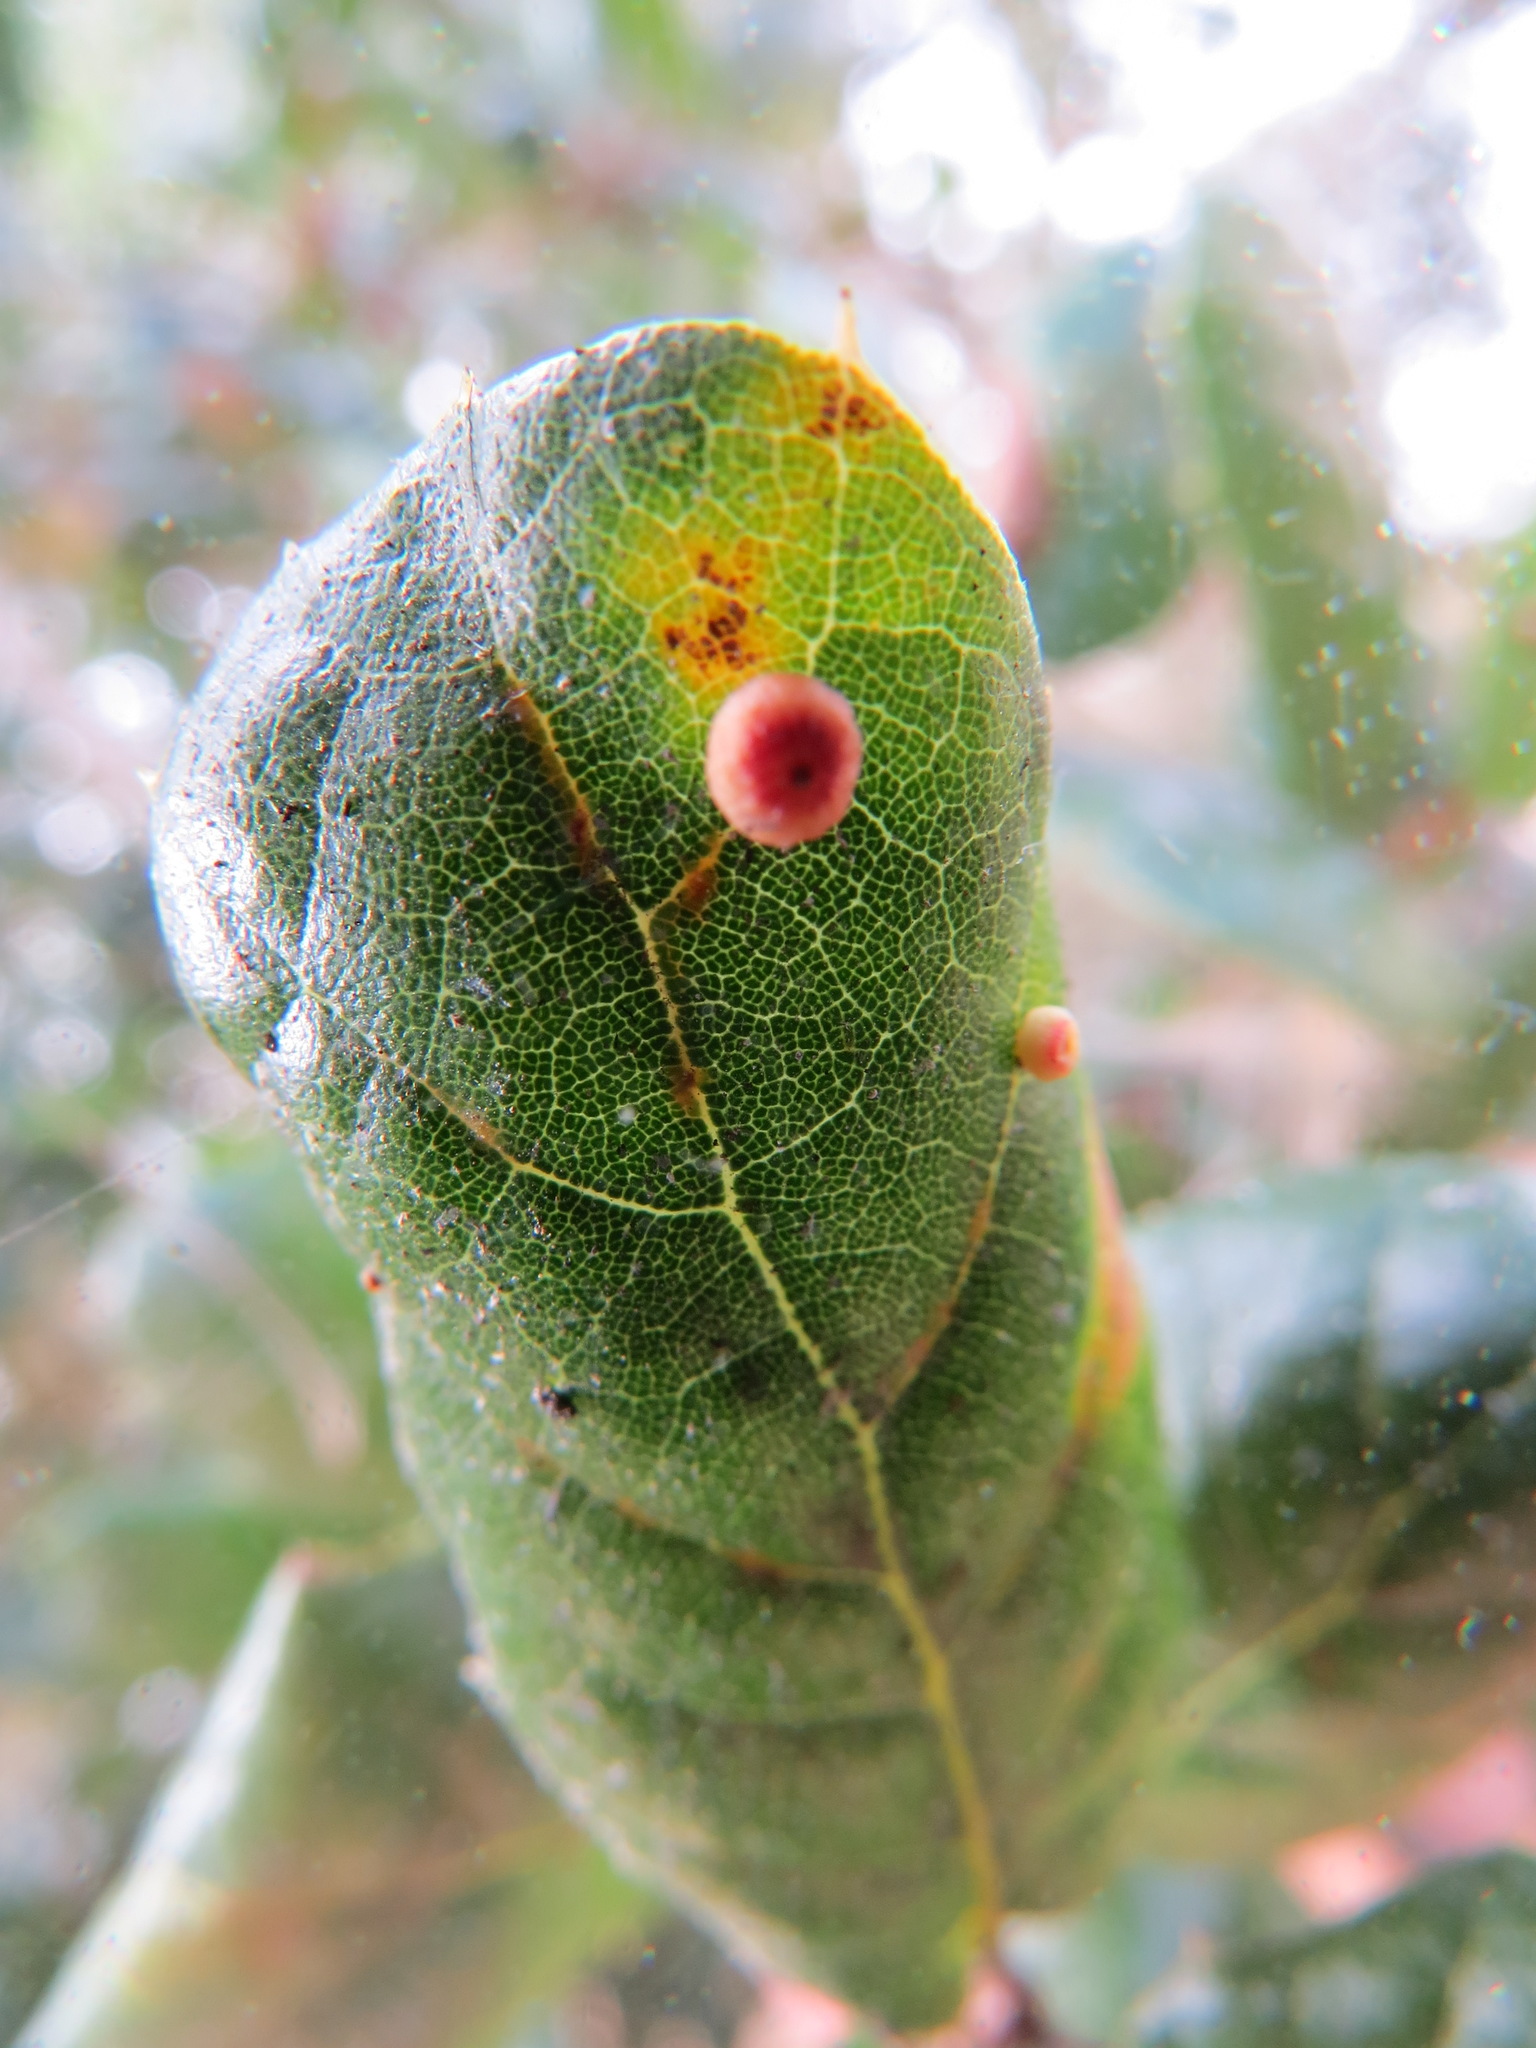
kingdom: Animalia
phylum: Arthropoda
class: Insecta
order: Hymenoptera
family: Cynipidae
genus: Dryocosmus
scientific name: Dryocosmus
